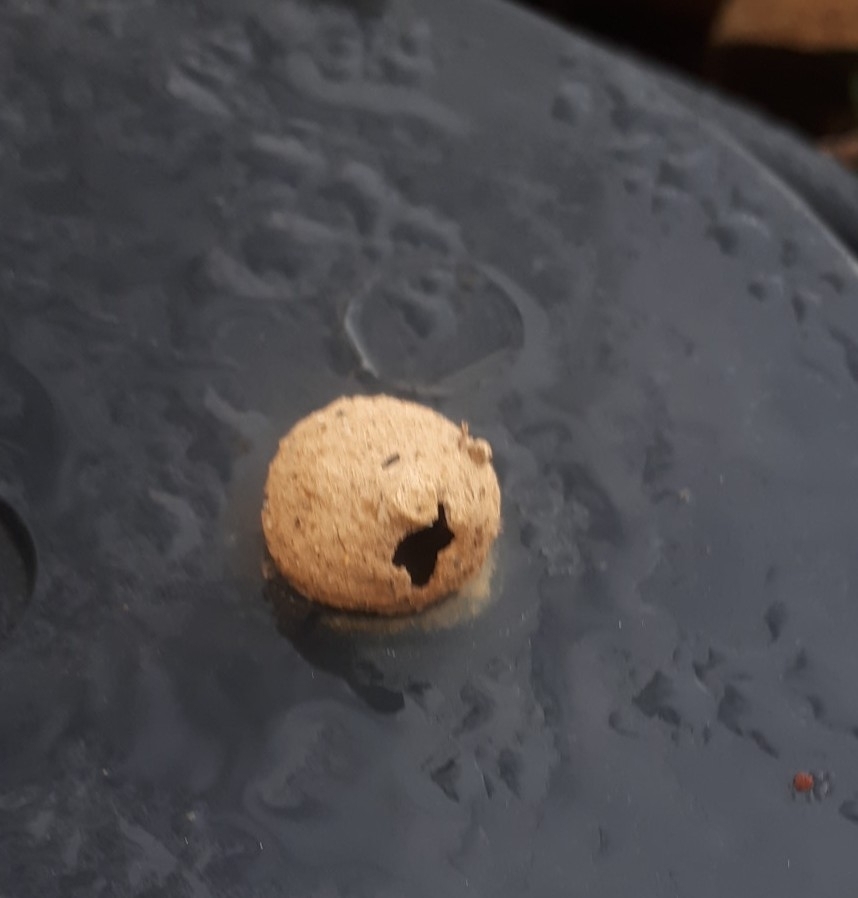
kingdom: Animalia
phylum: Arthropoda
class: Insecta
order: Hymenoptera
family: Vespidae
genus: Eumenes
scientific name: Eumenes
